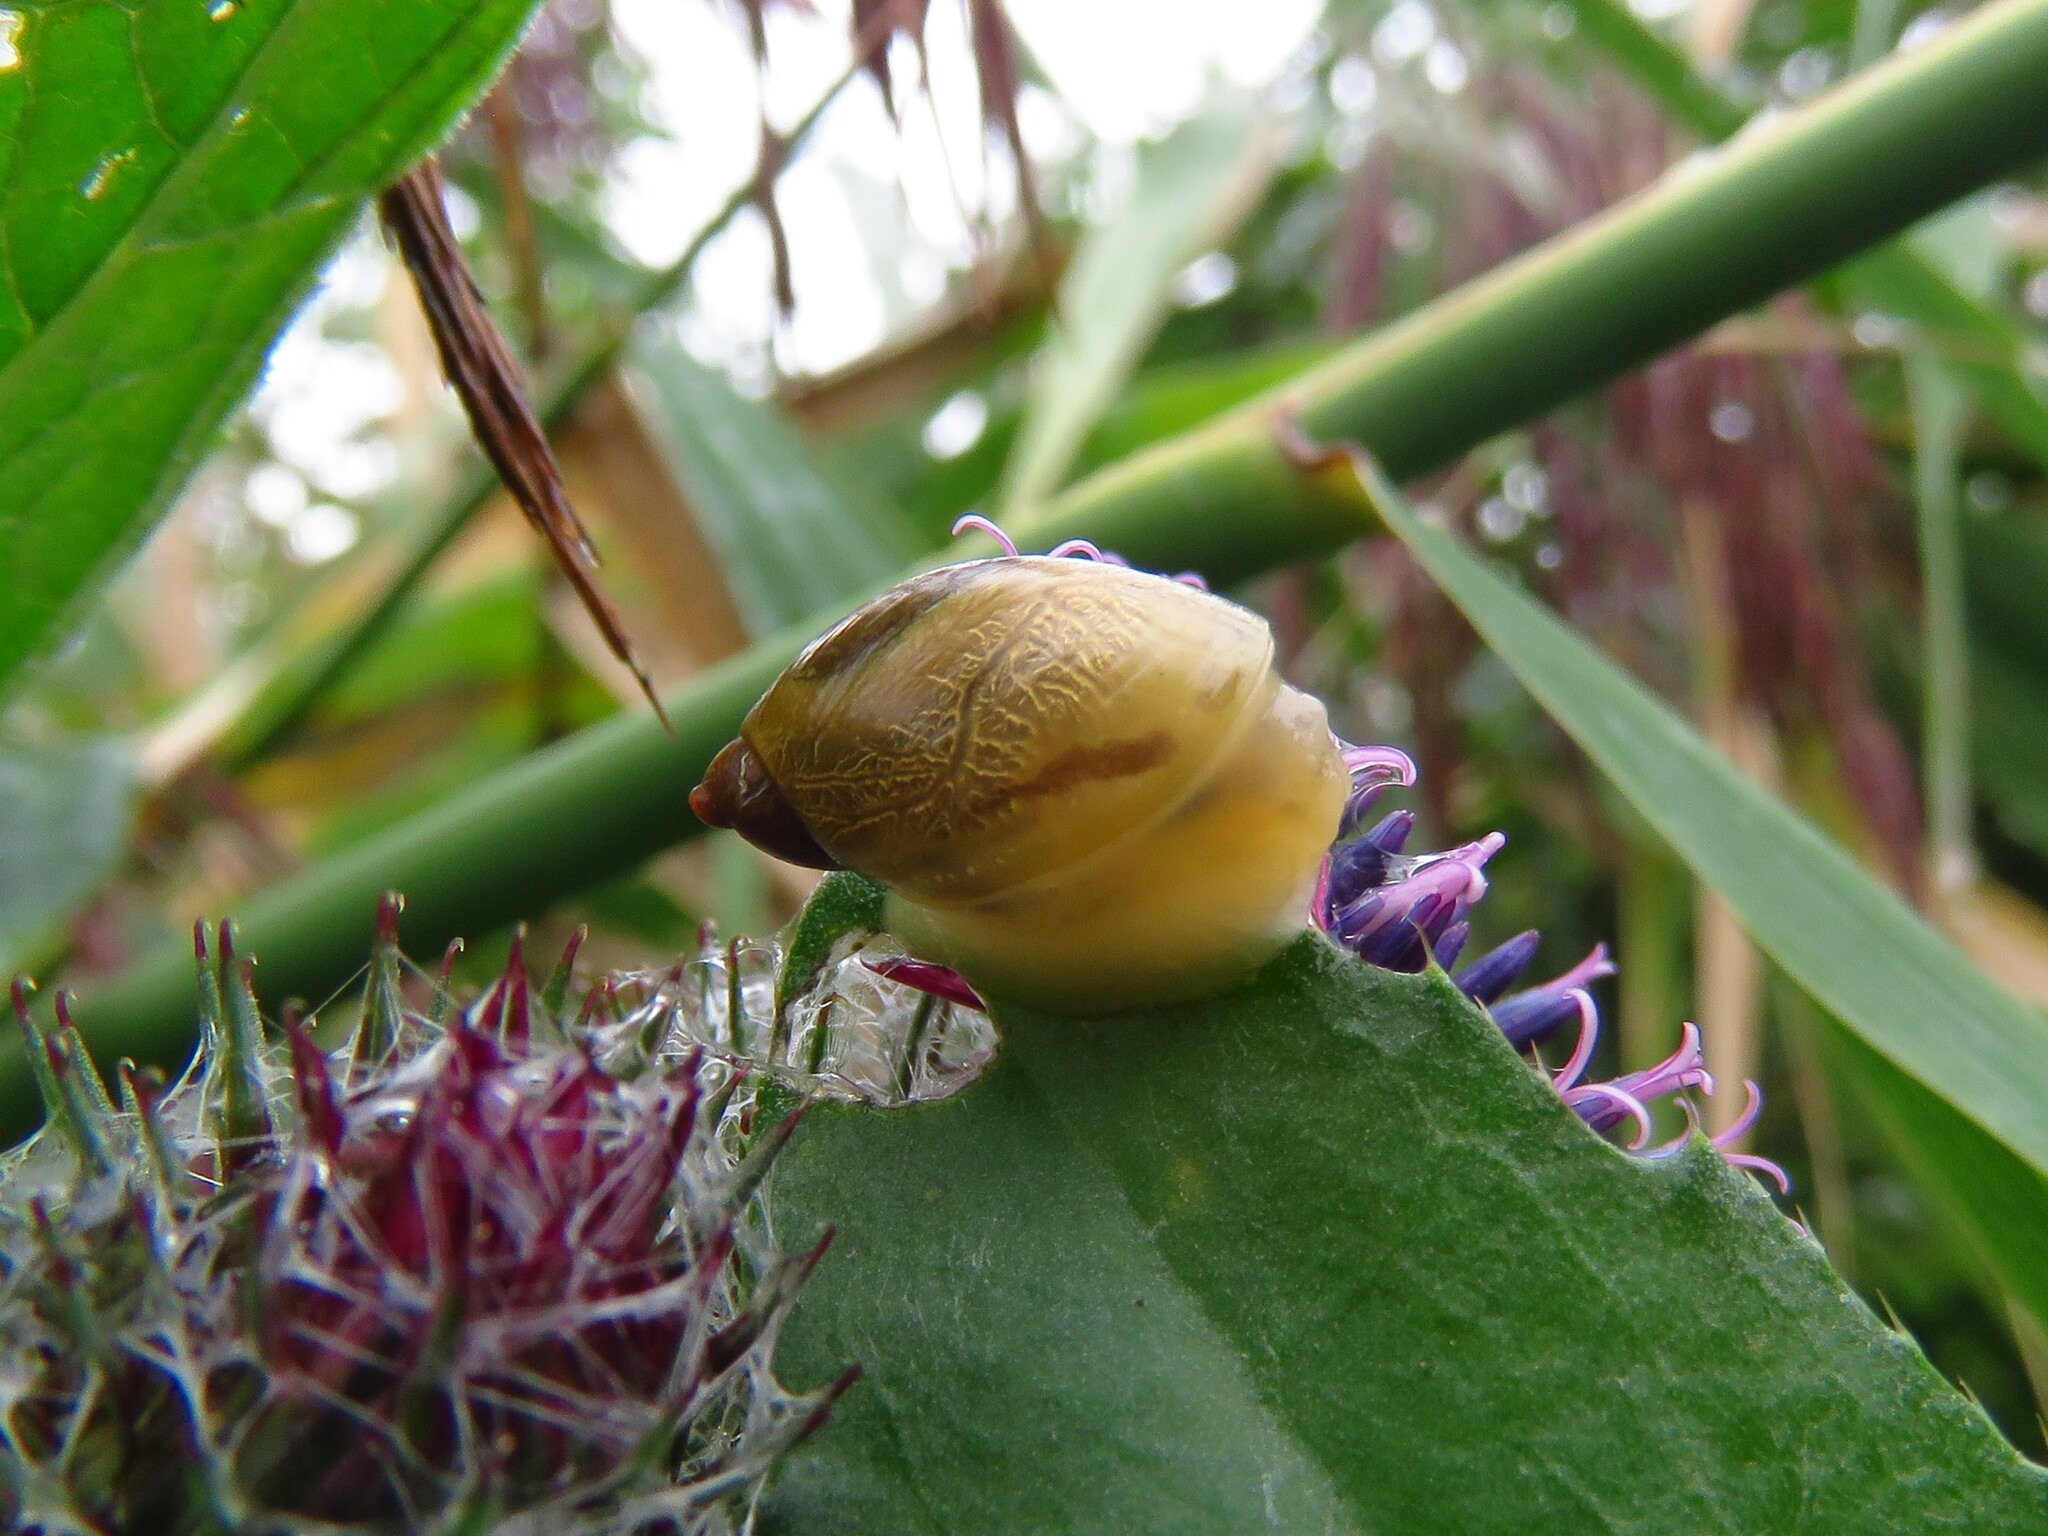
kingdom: Animalia
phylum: Mollusca
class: Gastropoda
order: Stylommatophora
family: Succineidae
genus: Succinea
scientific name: Succinea putris
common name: European ambersnail
